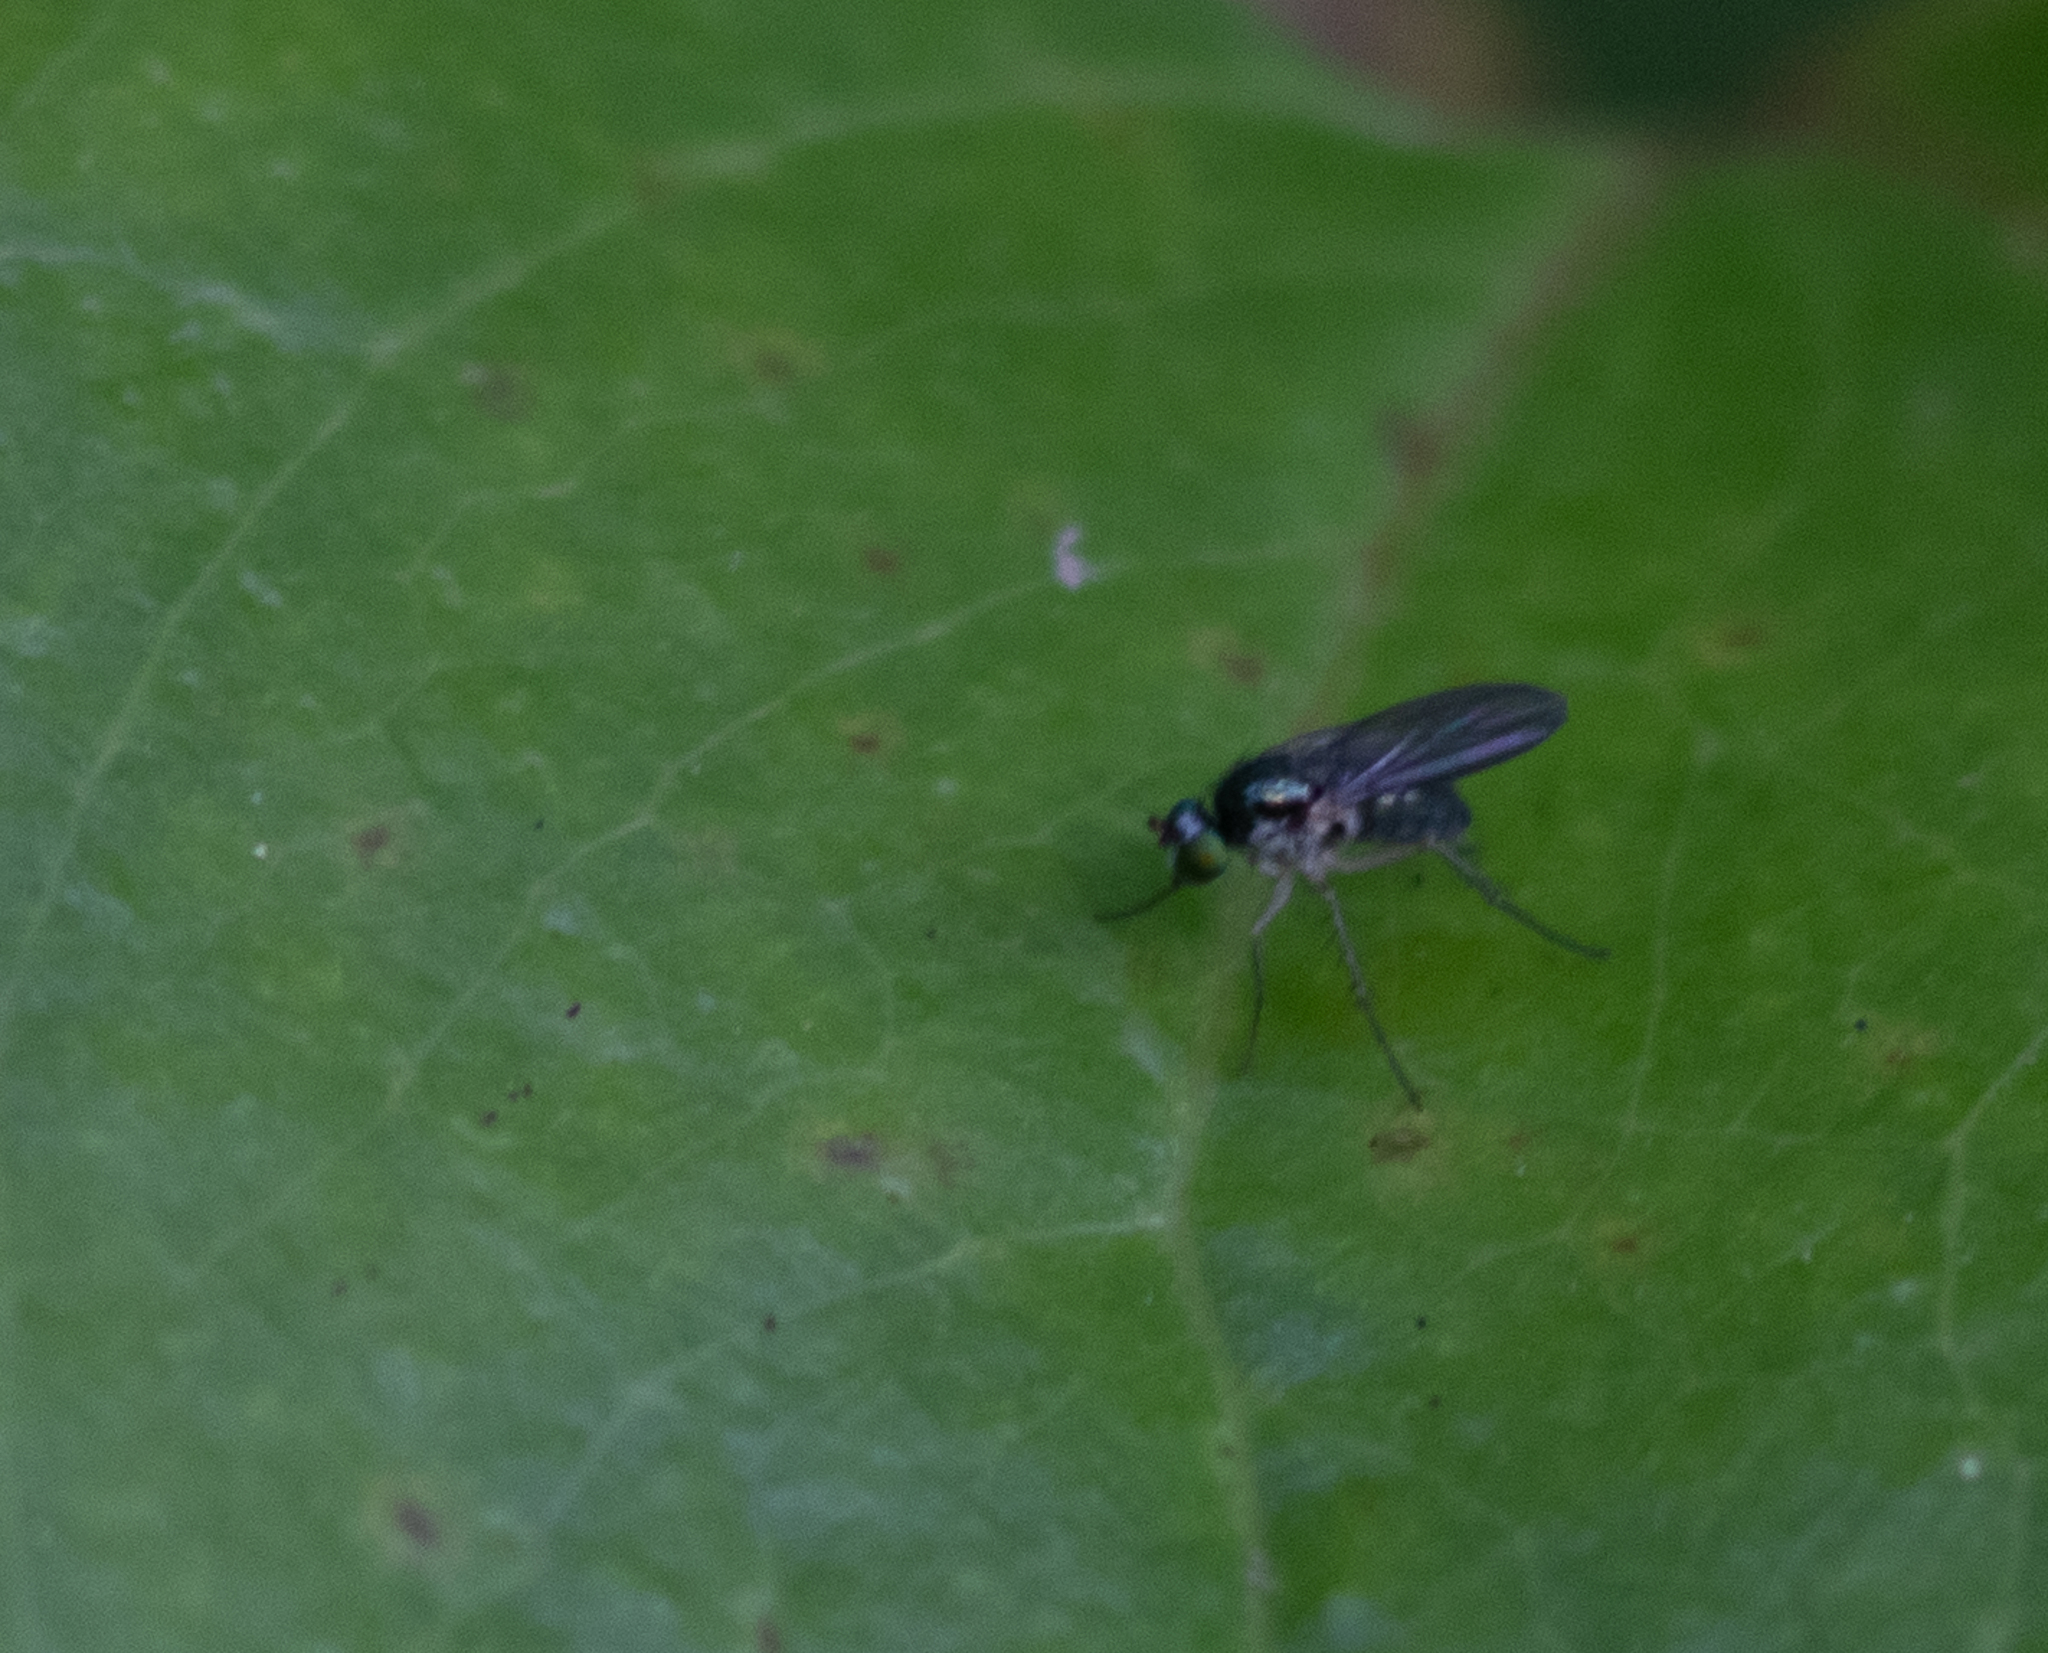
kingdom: Animalia
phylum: Arthropoda
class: Insecta
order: Diptera
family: Dolichopodidae
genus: Gymnopternus
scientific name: Gymnopternus
